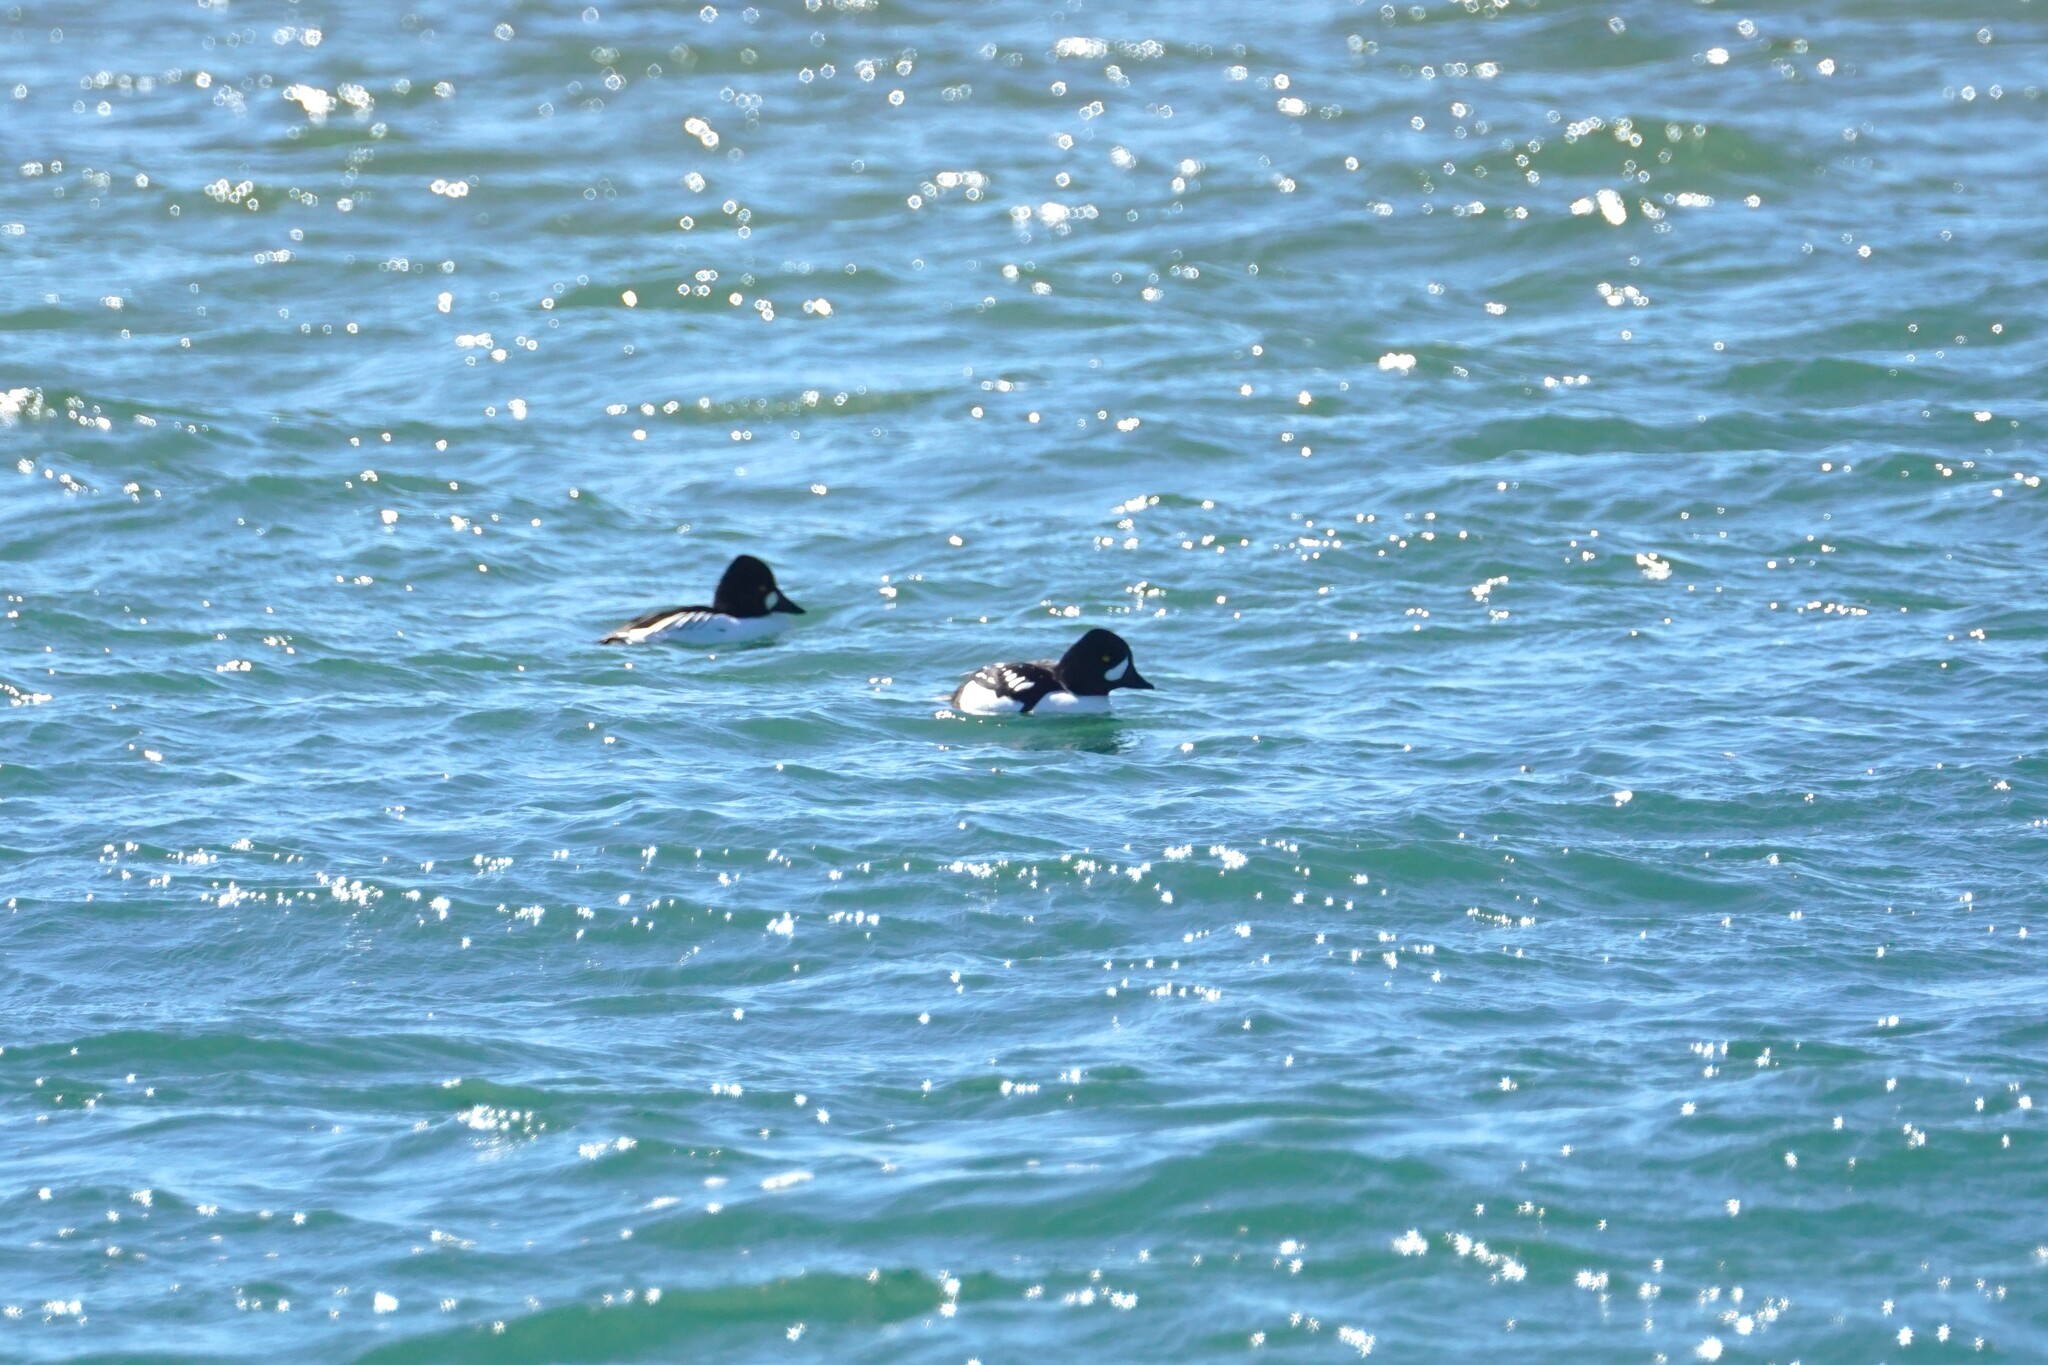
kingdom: Animalia
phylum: Chordata
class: Aves
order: Anseriformes
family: Anatidae
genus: Bucephala
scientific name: Bucephala islandica
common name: Barrow's goldeneye
